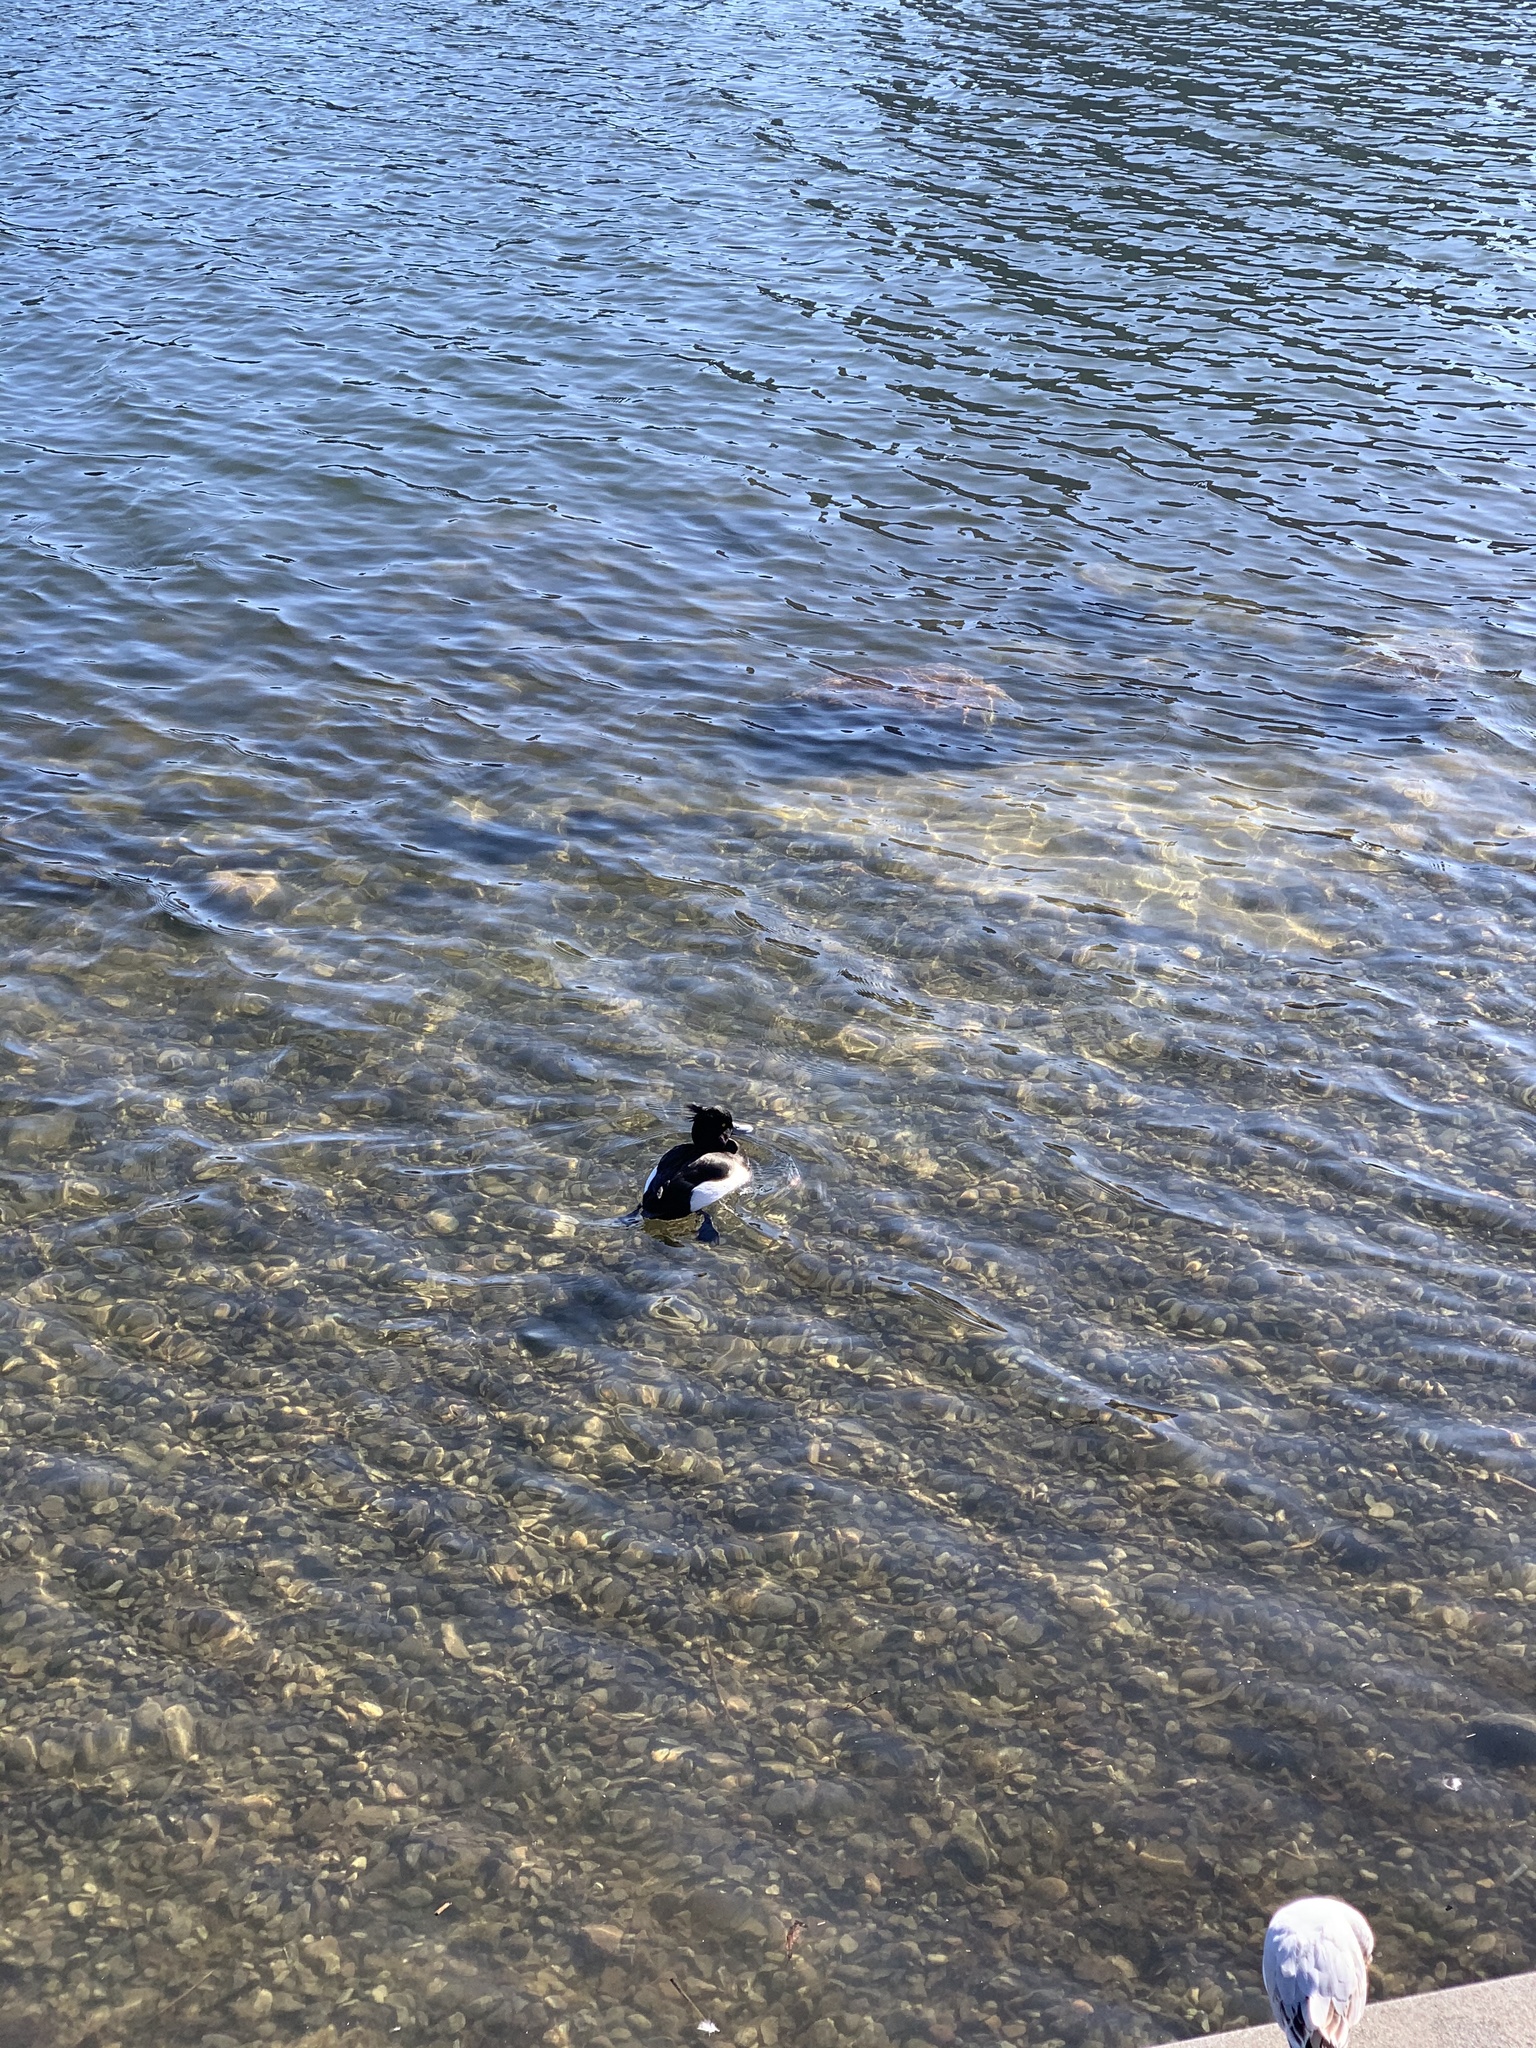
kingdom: Animalia
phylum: Chordata
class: Aves
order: Anseriformes
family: Anatidae
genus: Aythya
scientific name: Aythya fuligula
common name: Tufted duck
